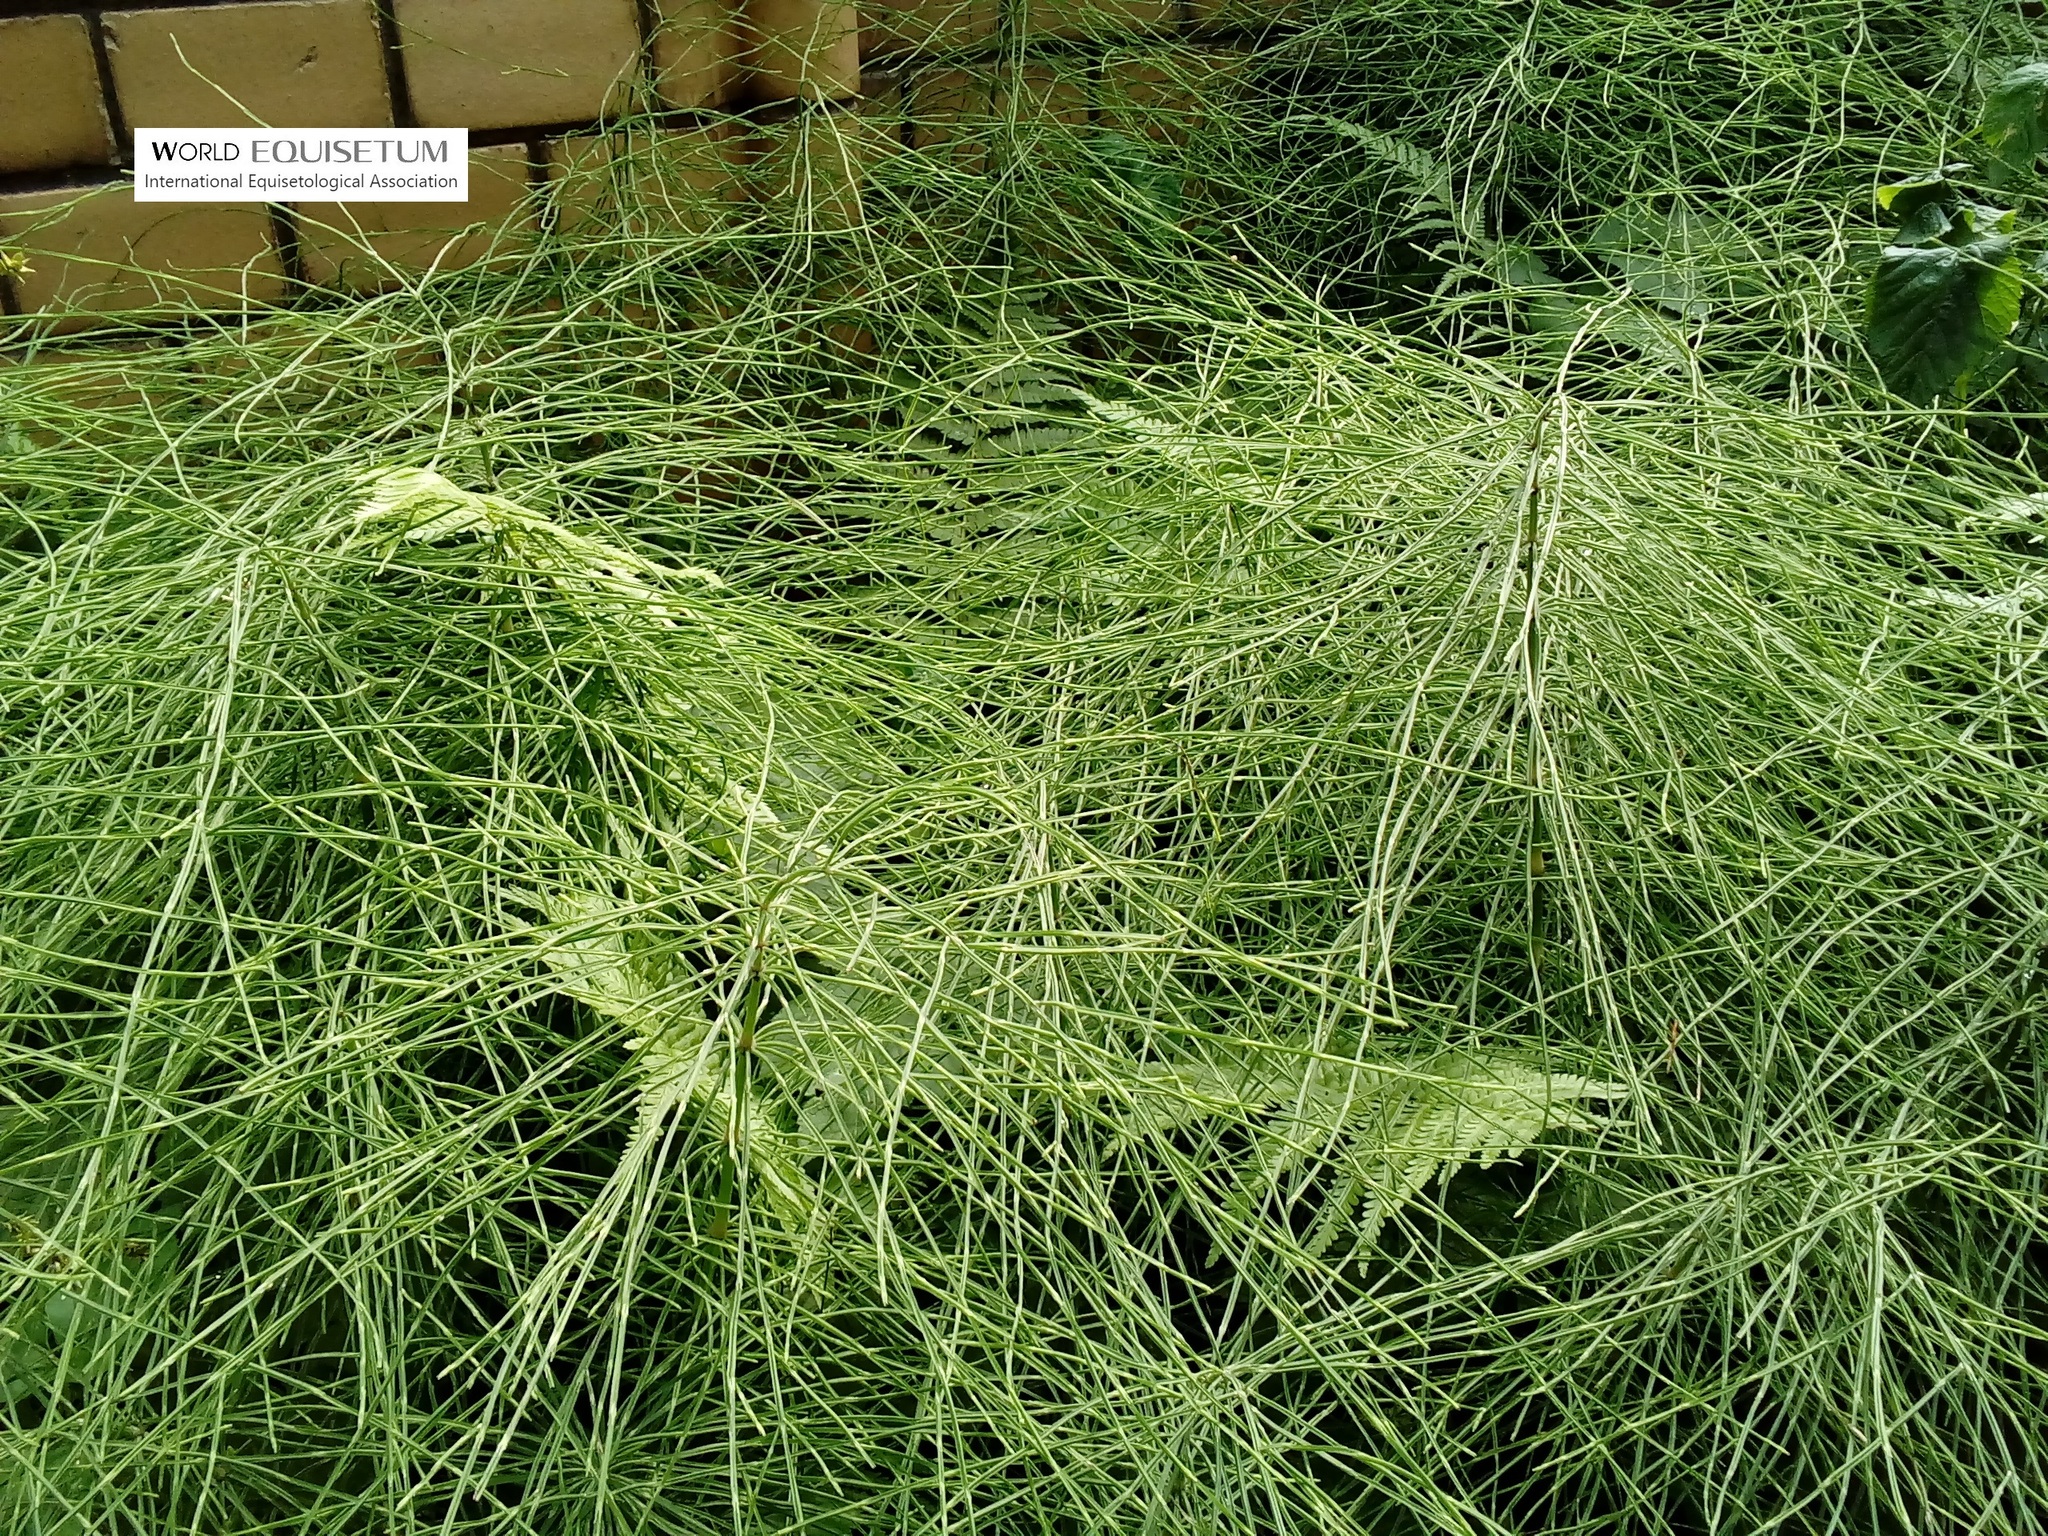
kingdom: Plantae
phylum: Tracheophyta
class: Polypodiopsida
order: Equisetales
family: Equisetaceae
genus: Equisetum
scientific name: Equisetum arvense
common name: Field horsetail
